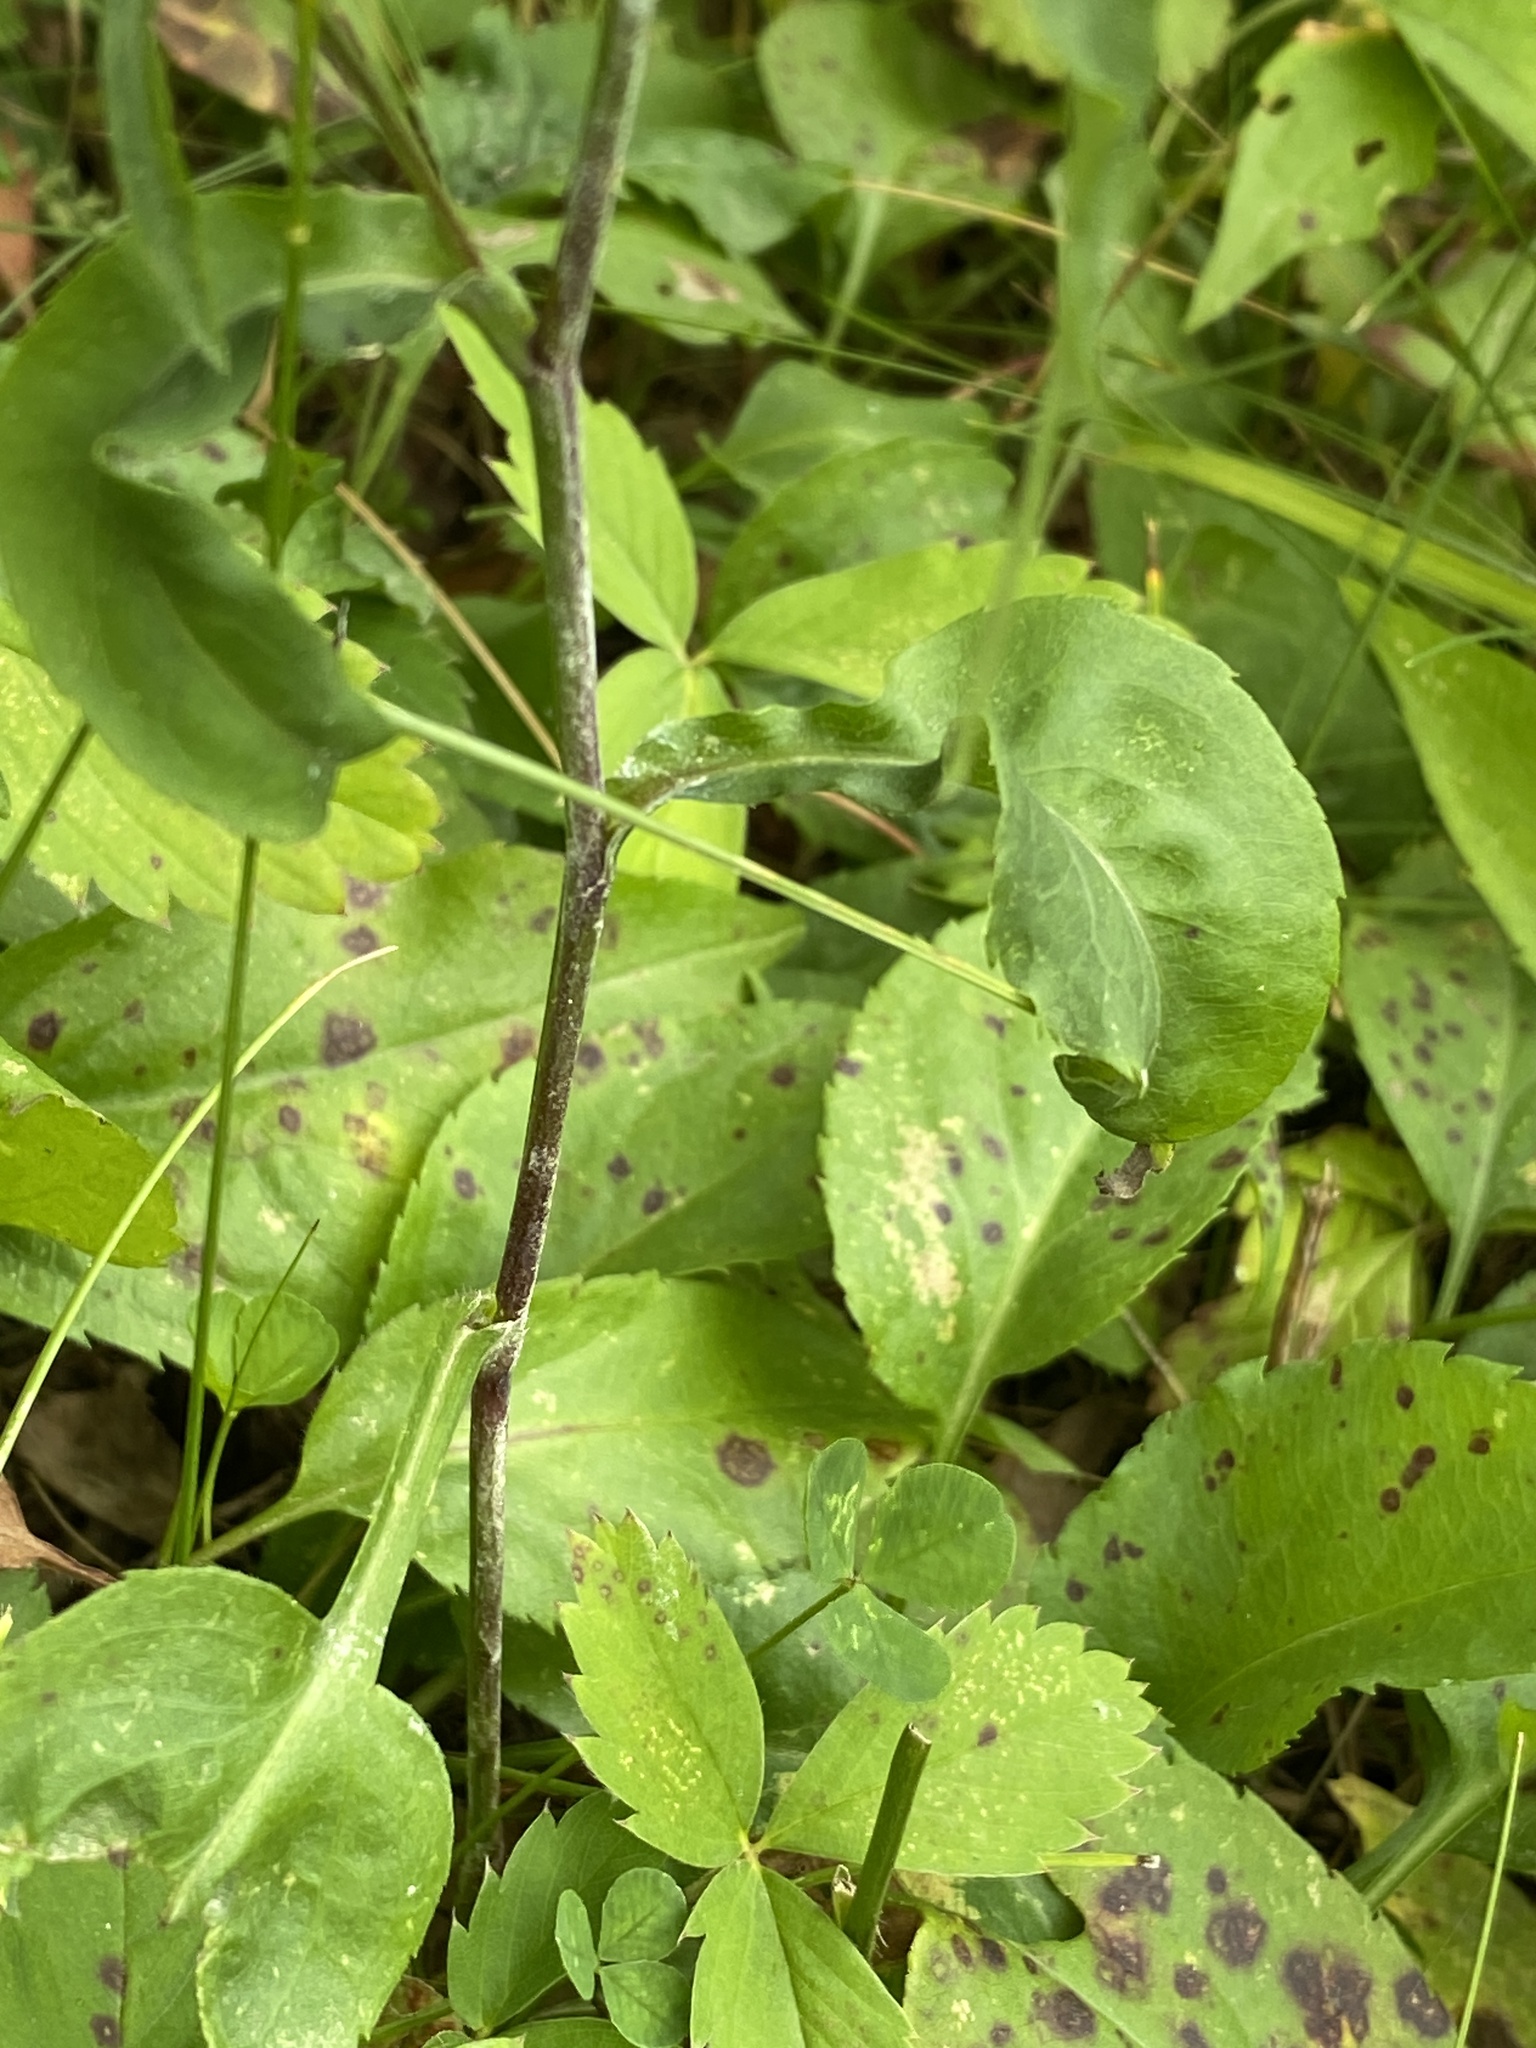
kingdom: Plantae
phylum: Tracheophyta
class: Magnoliopsida
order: Asterales
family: Asteraceae
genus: Symphyotrichum
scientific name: Symphyotrichum ciliolatum
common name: Fringed blue aster
